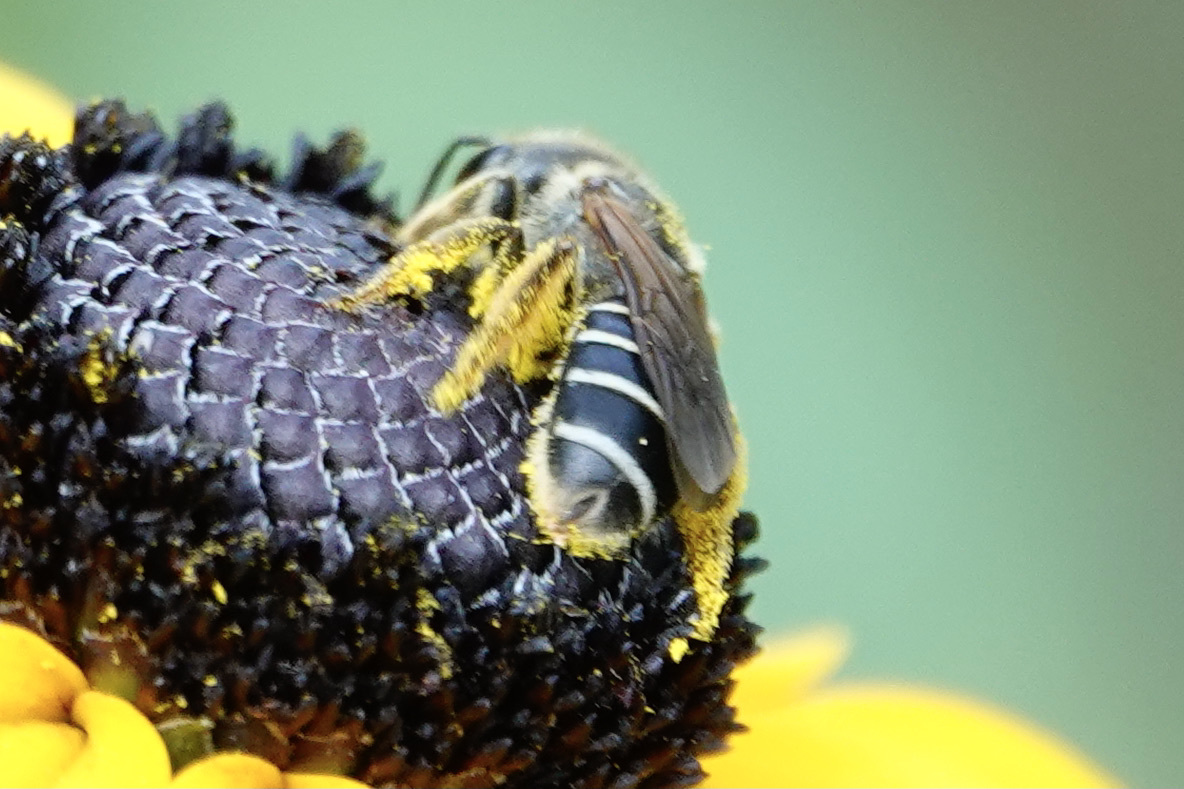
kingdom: Animalia
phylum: Arthropoda
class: Insecta
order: Hymenoptera
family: Halictidae
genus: Halictus
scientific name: Halictus ligatus
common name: Ligated furrow bee
